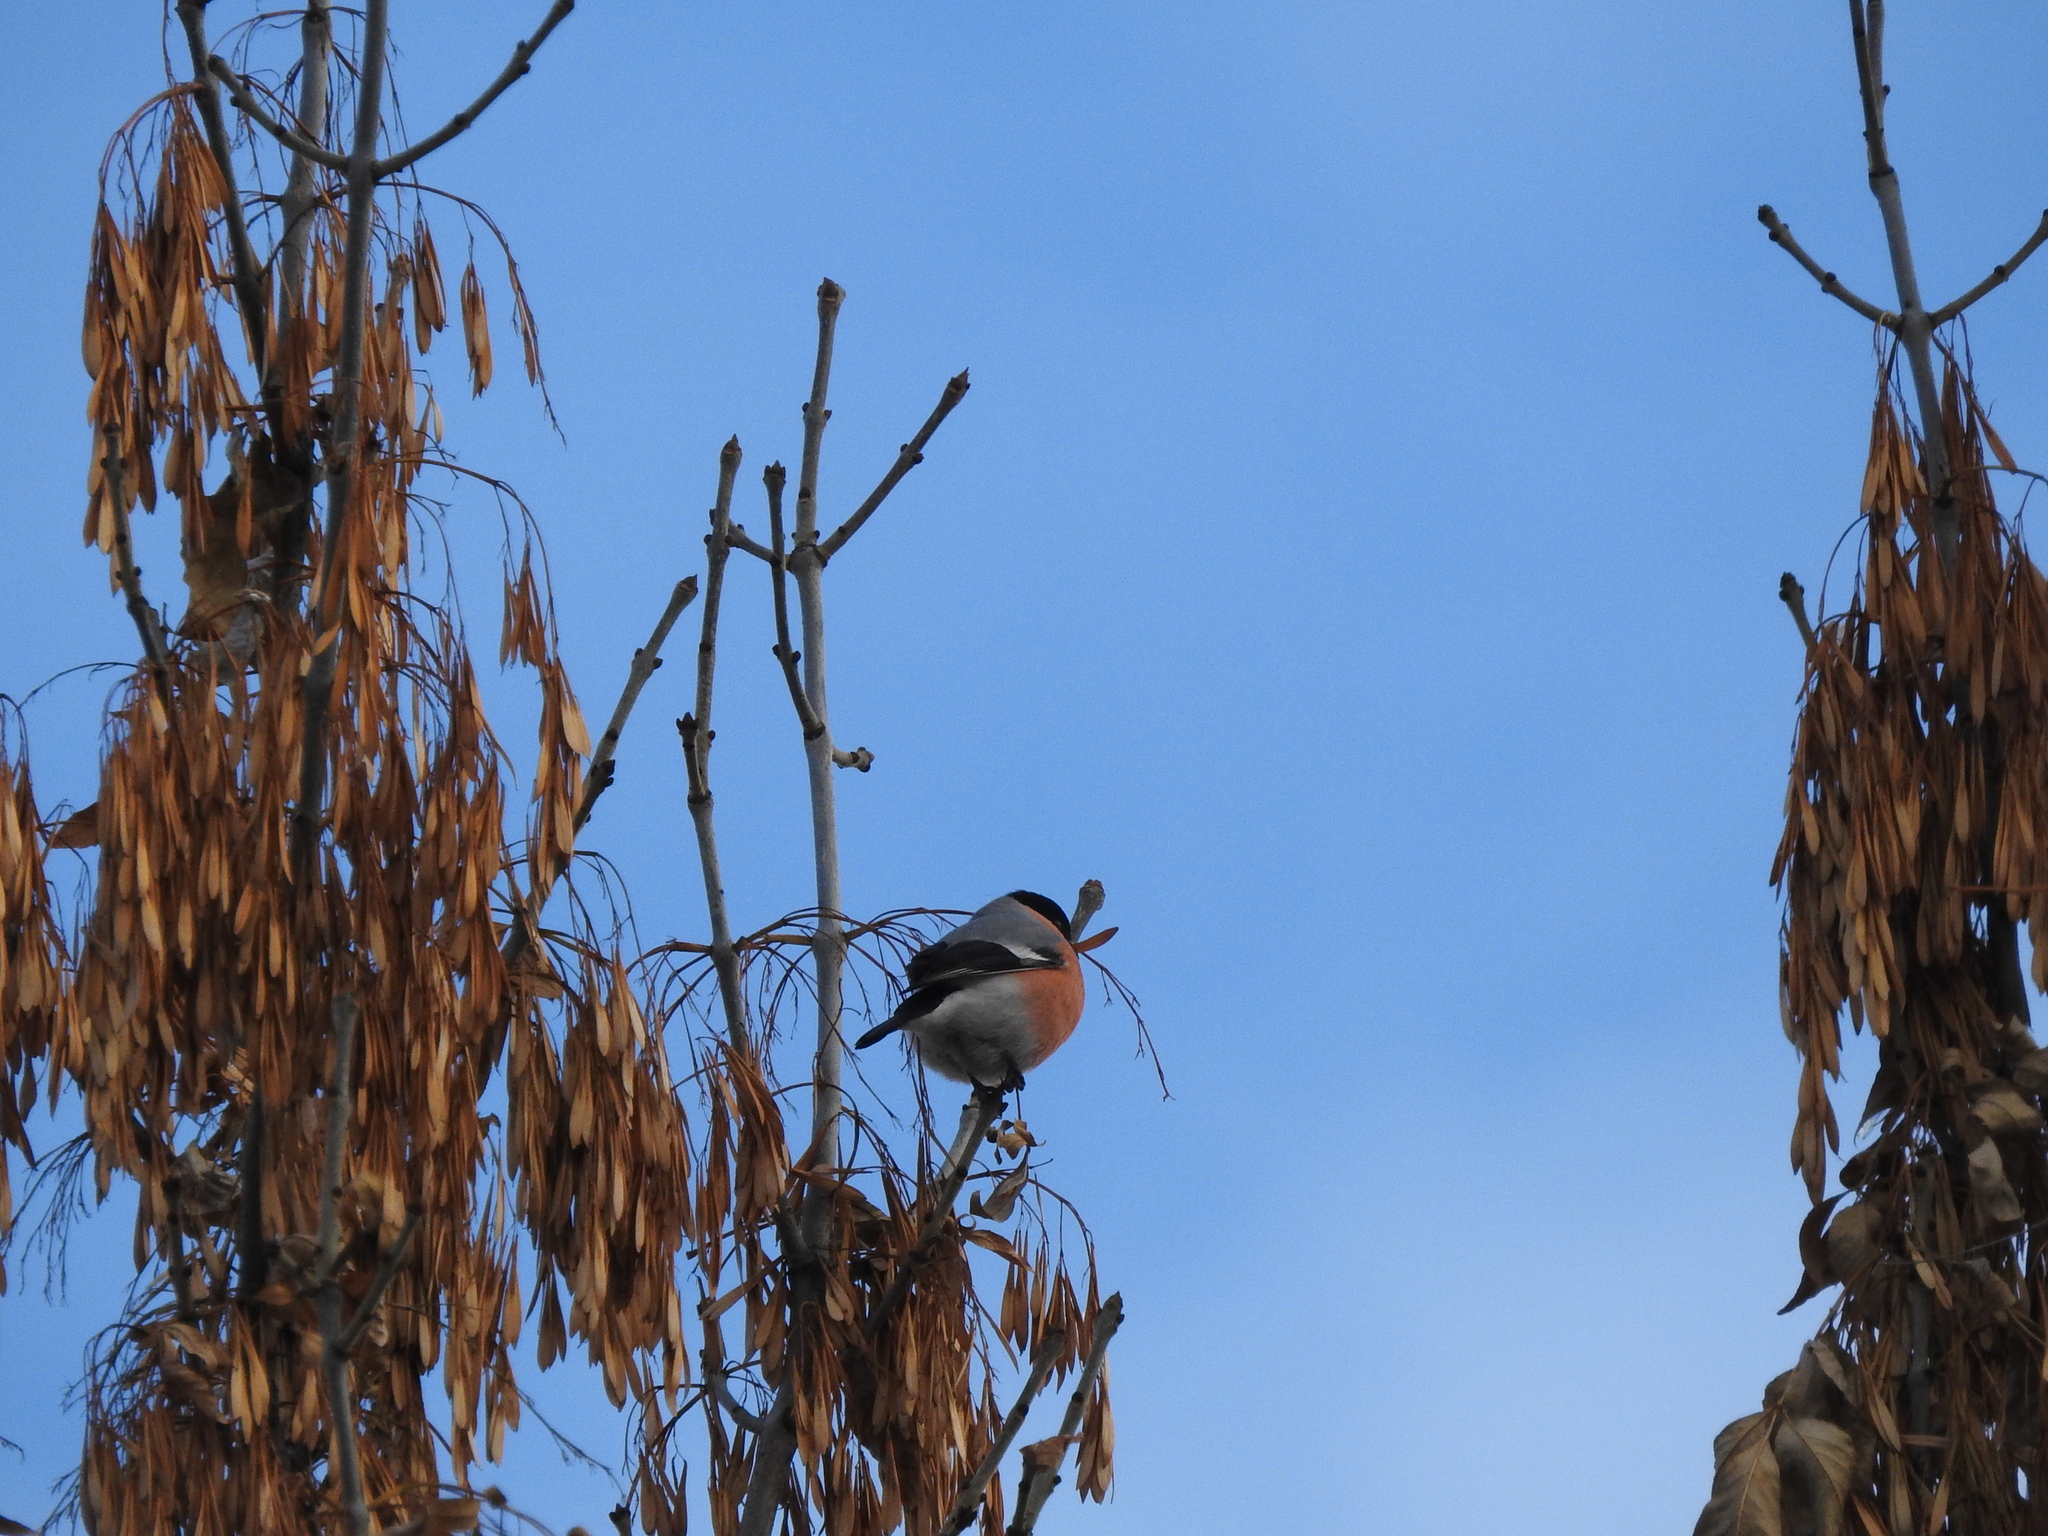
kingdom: Animalia
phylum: Chordata
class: Aves
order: Passeriformes
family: Fringillidae
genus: Pyrrhula
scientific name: Pyrrhula pyrrhula
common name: Eurasian bullfinch
